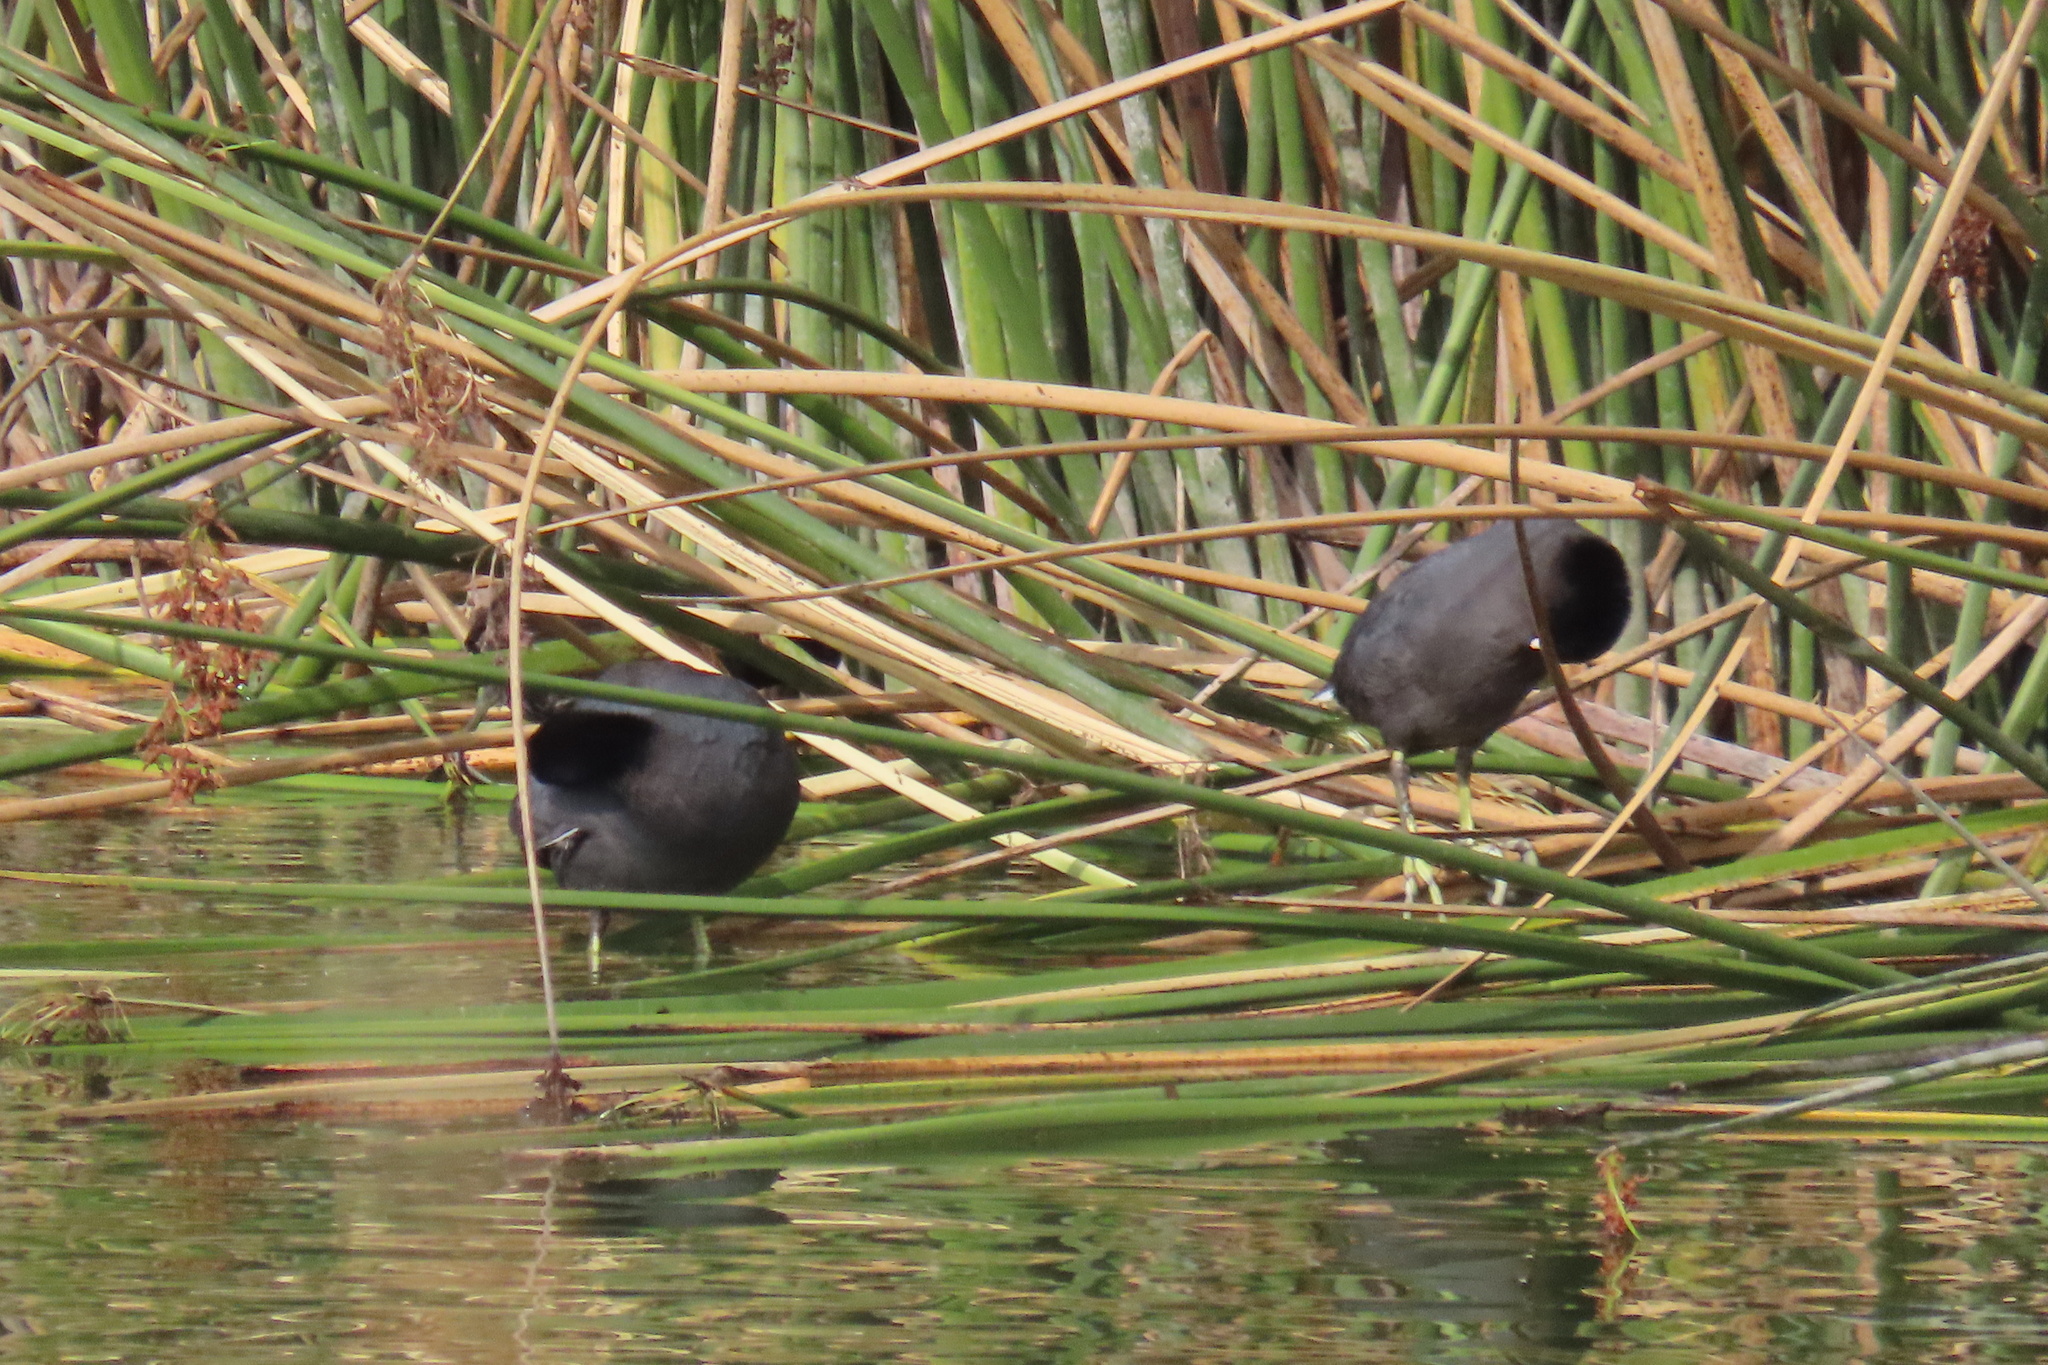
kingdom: Animalia
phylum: Chordata
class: Aves
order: Gruiformes
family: Rallidae
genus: Fulica
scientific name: Fulica americana
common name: American coot
